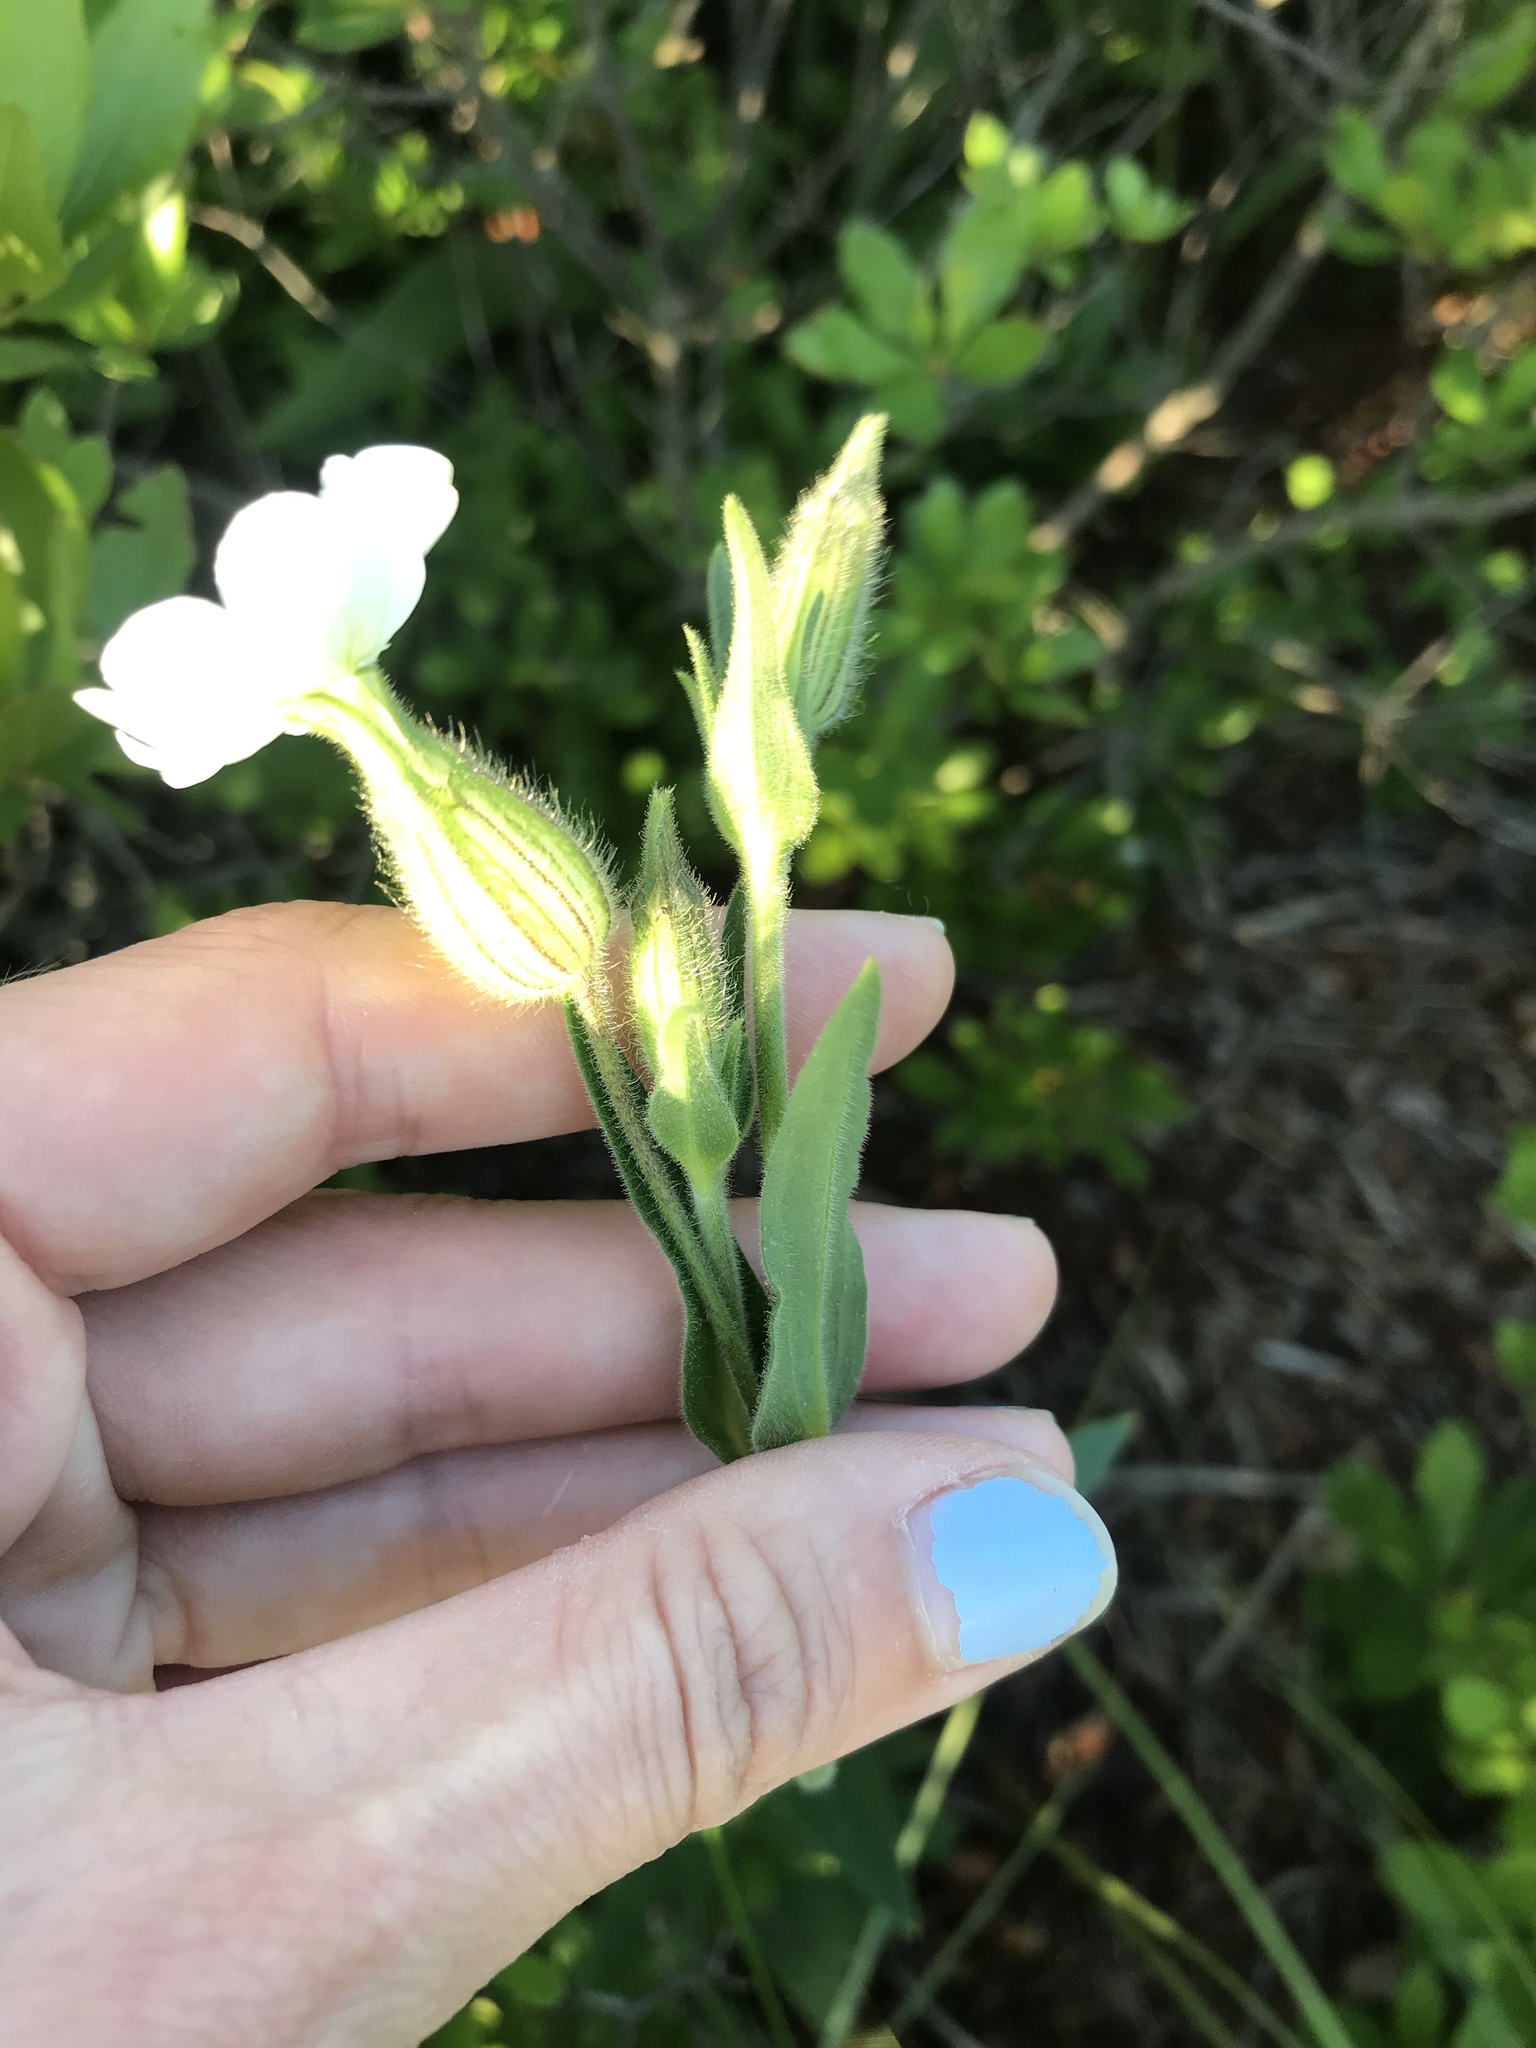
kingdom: Plantae
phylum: Tracheophyta
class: Magnoliopsida
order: Caryophyllales
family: Caryophyllaceae
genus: Silene
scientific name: Silene latifolia
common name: White campion
